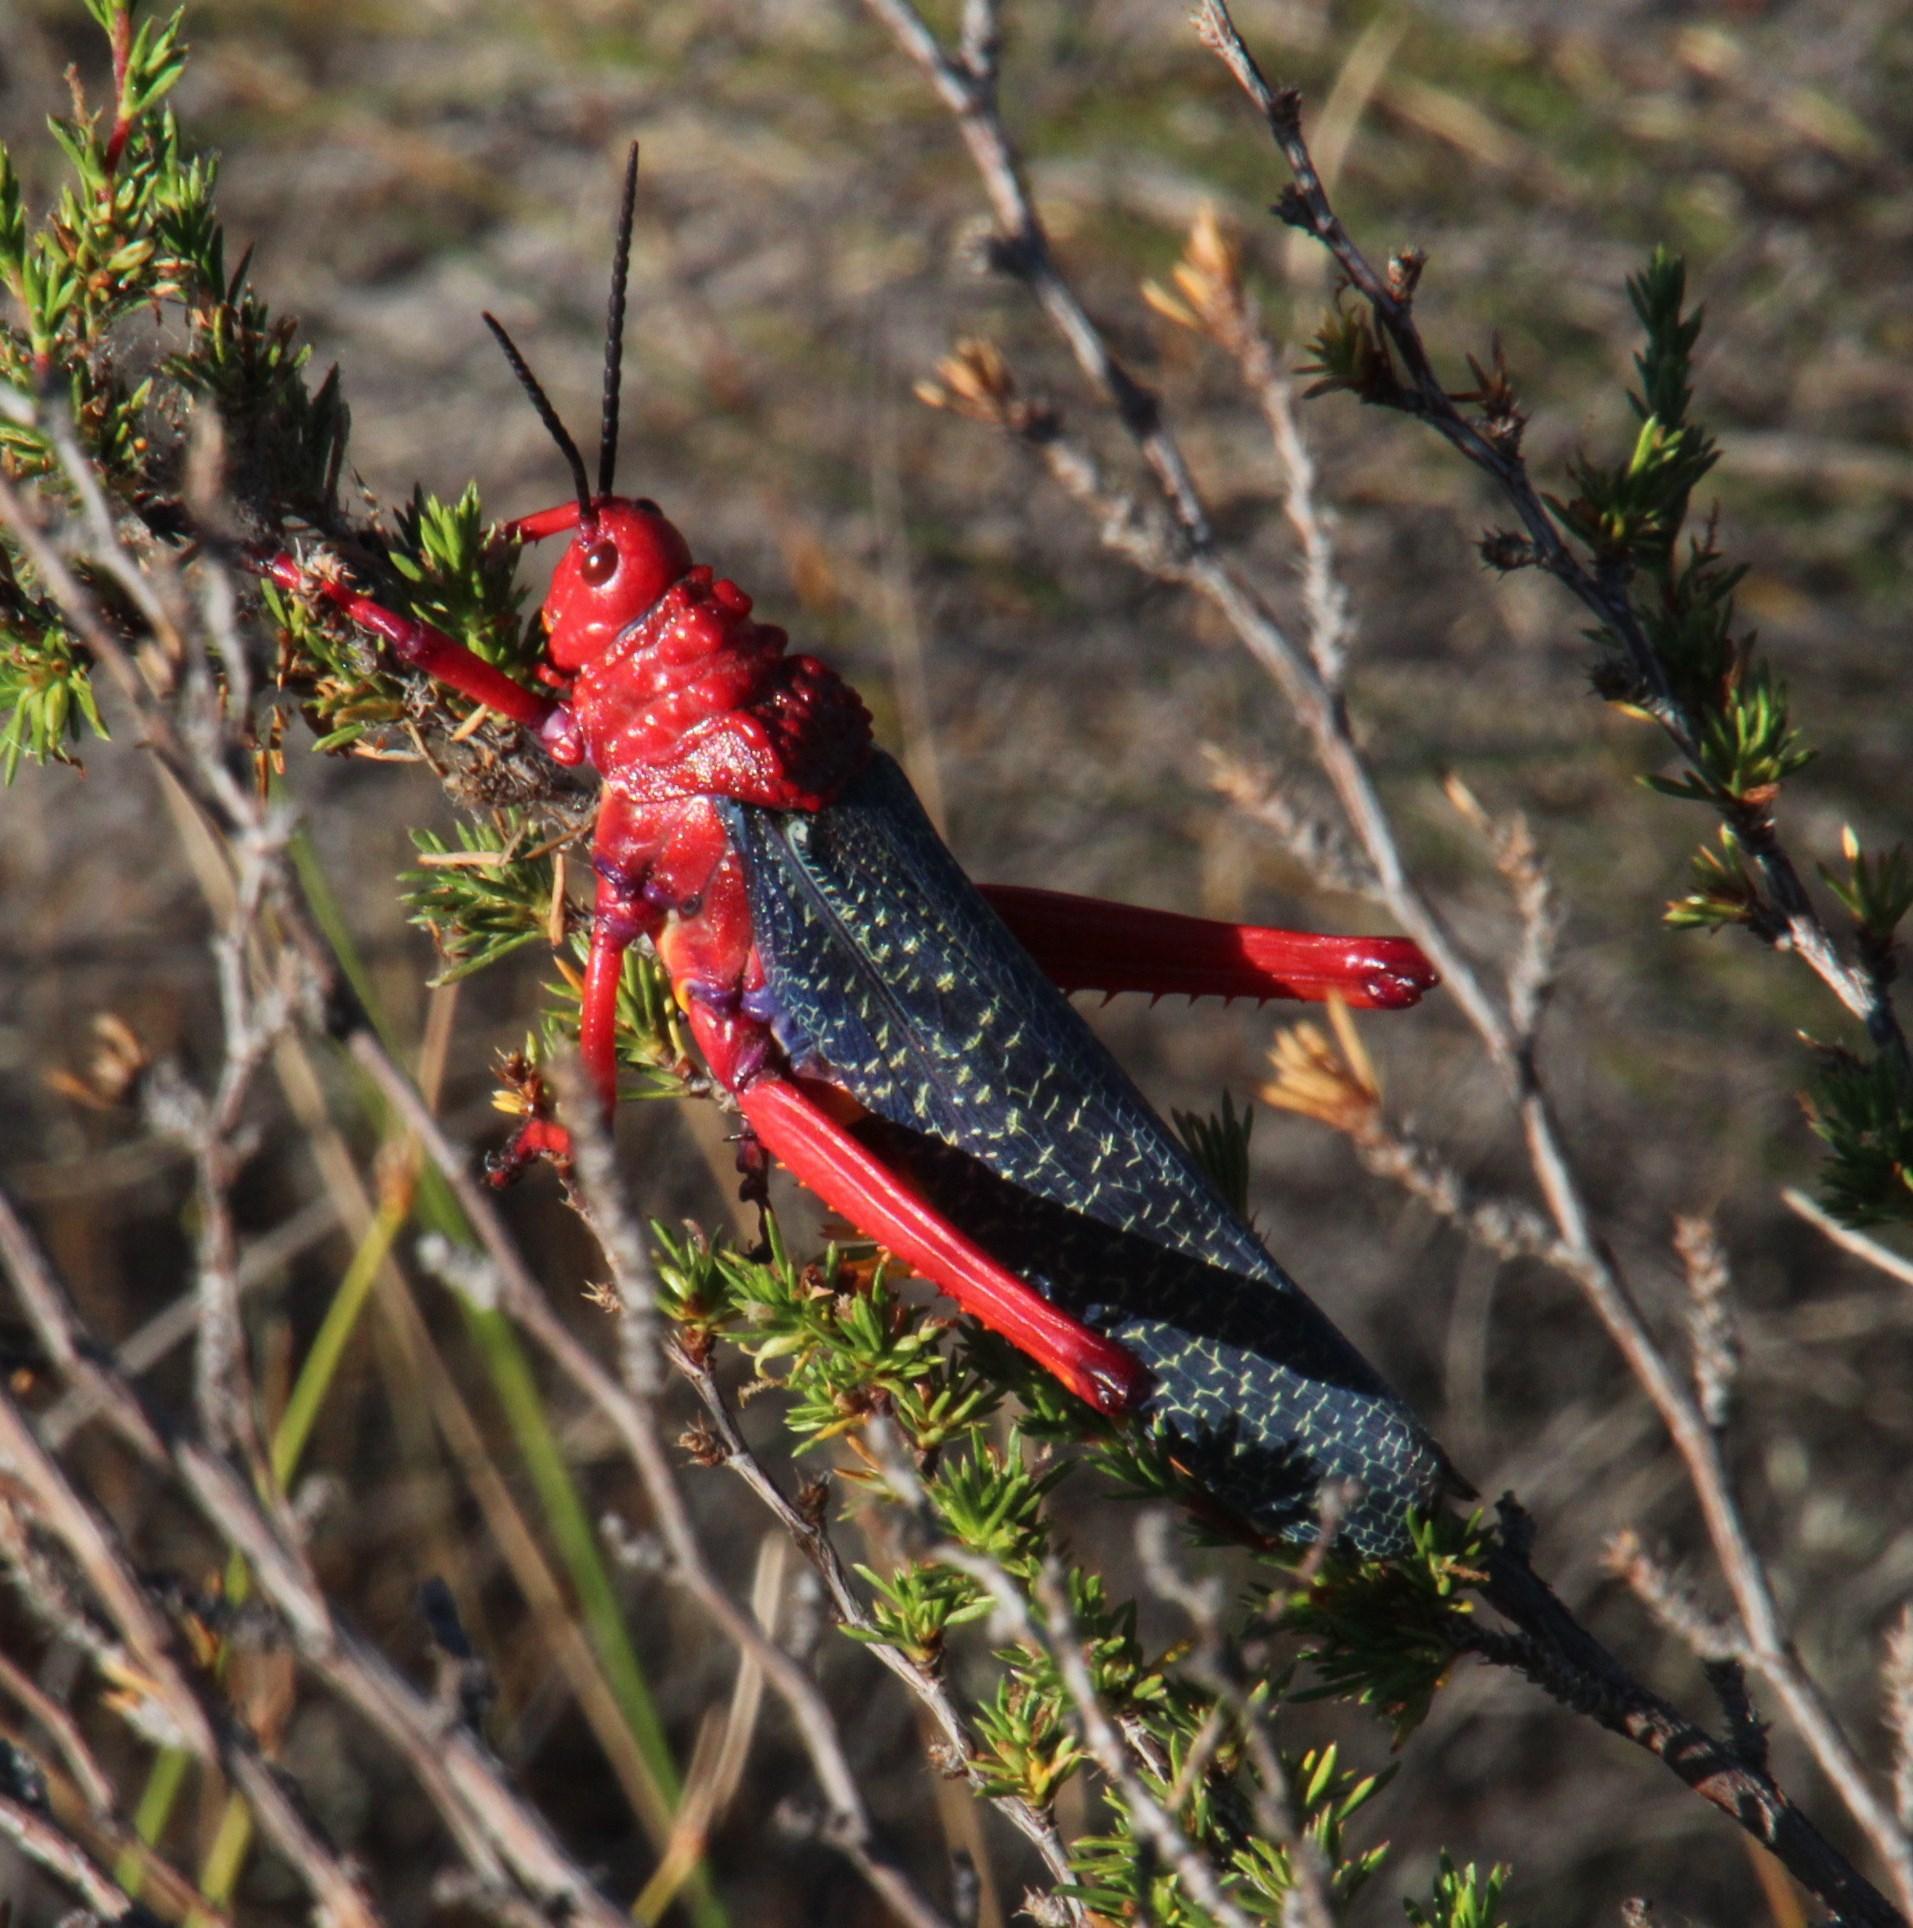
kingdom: Animalia
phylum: Arthropoda
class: Insecta
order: Orthoptera
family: Pyrgomorphidae
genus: Phymateus
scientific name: Phymateus morbillosus
